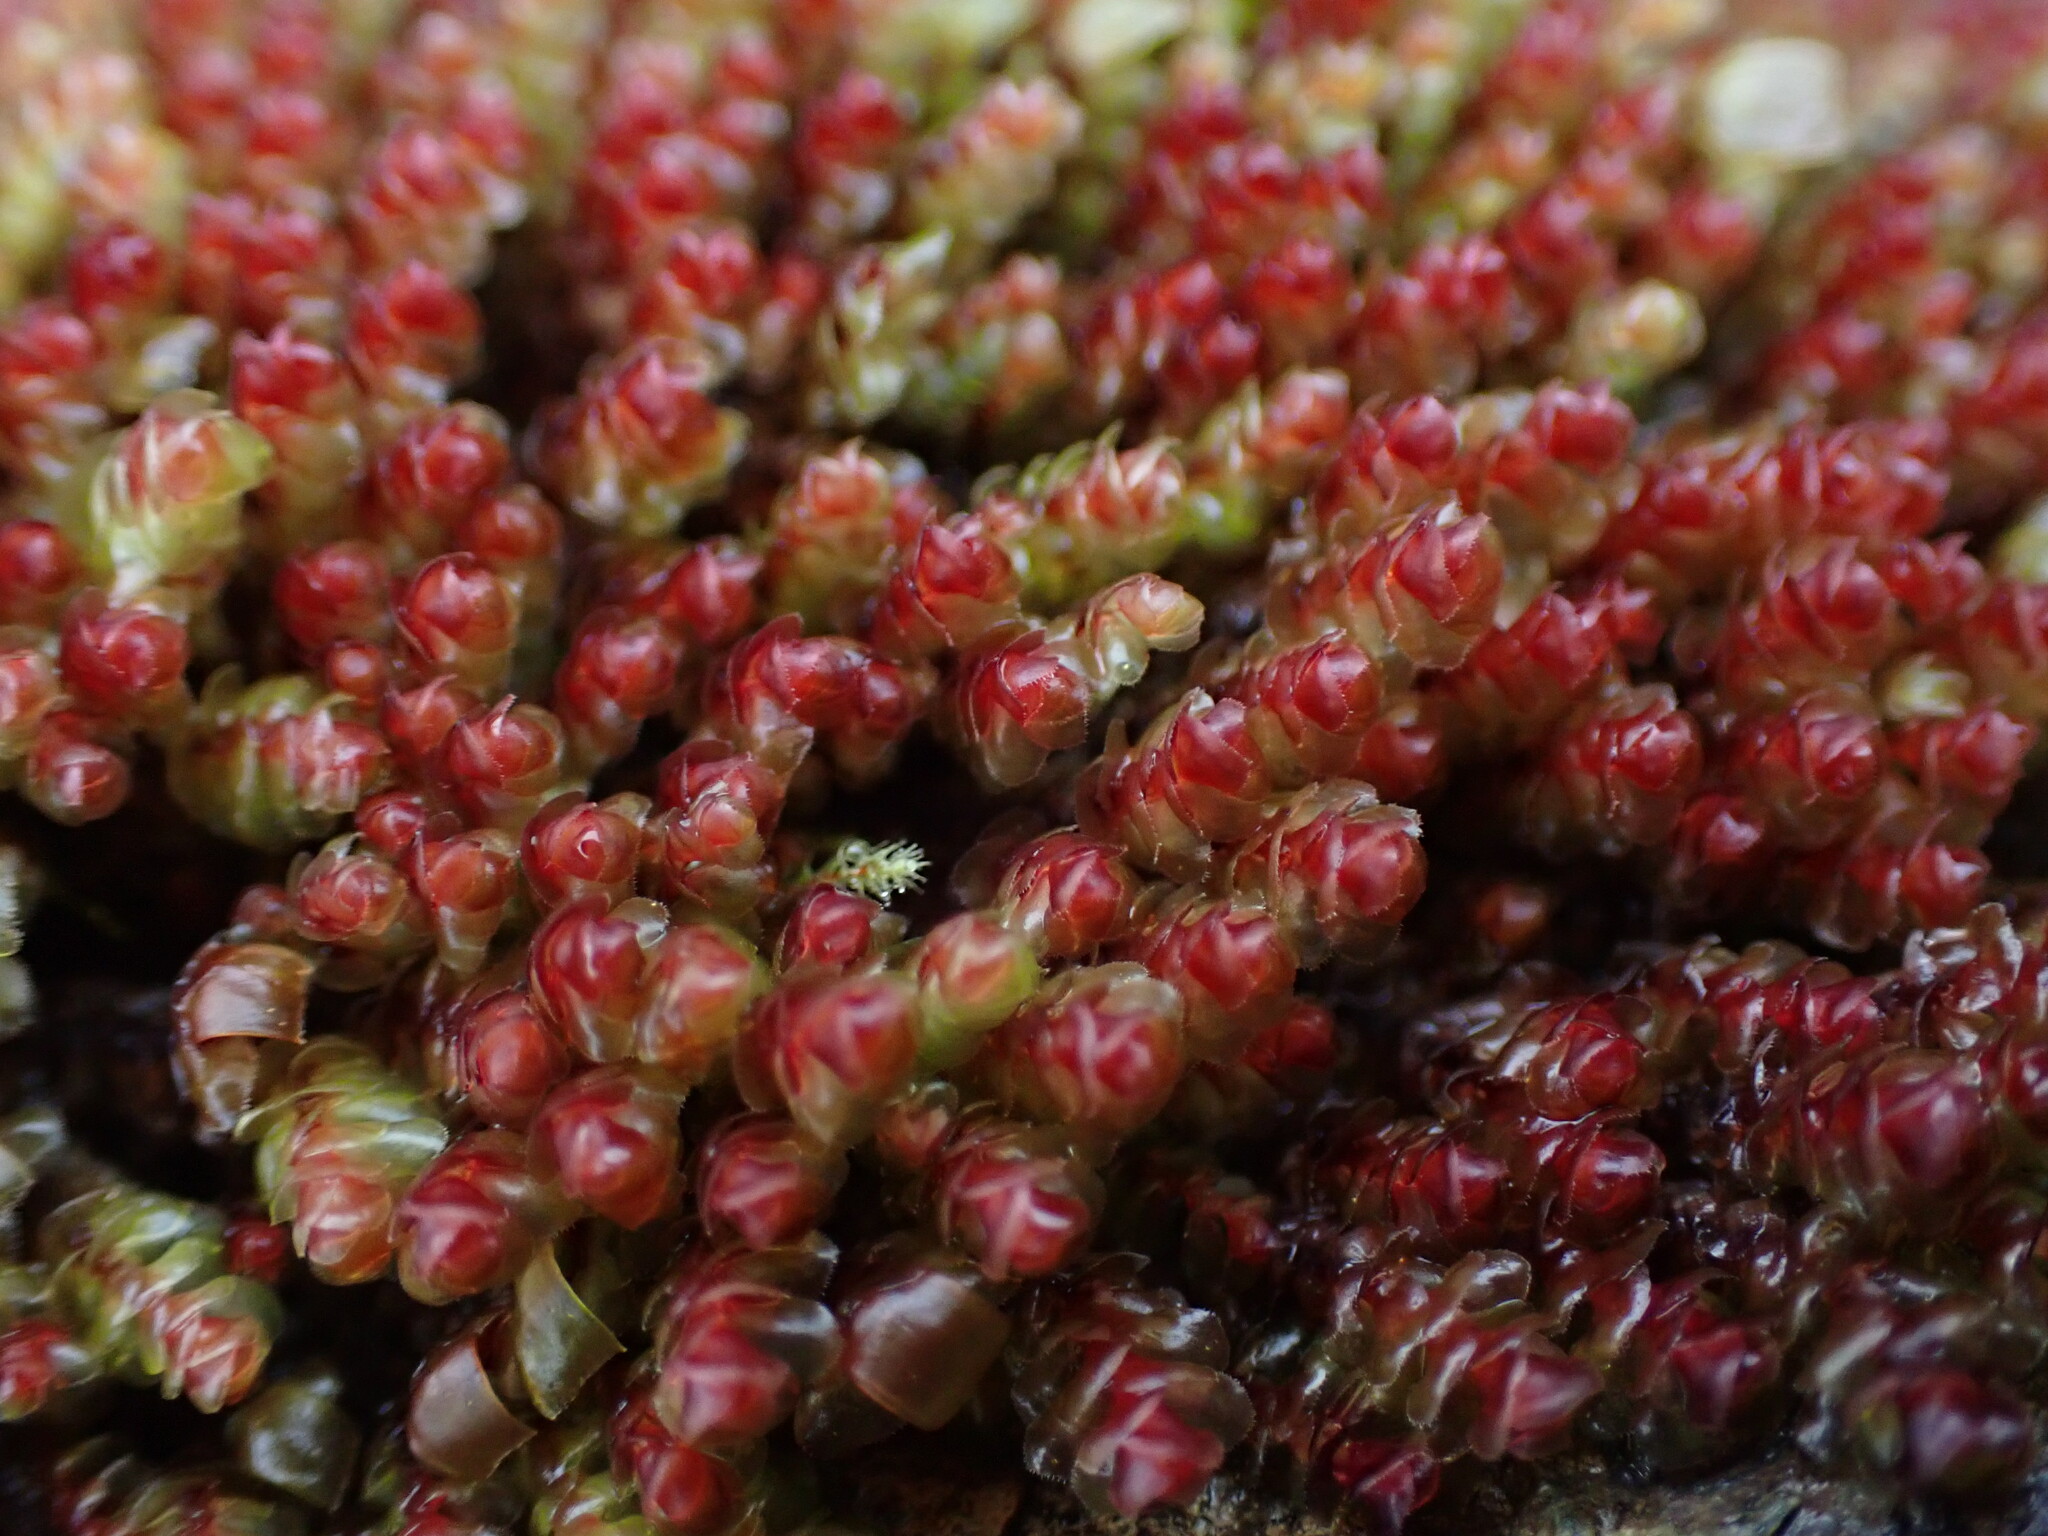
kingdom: Plantae
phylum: Marchantiophyta
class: Jungermanniopsida
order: Jungermanniales
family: Scapaniaceae
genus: Scapania
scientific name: Scapania americana
